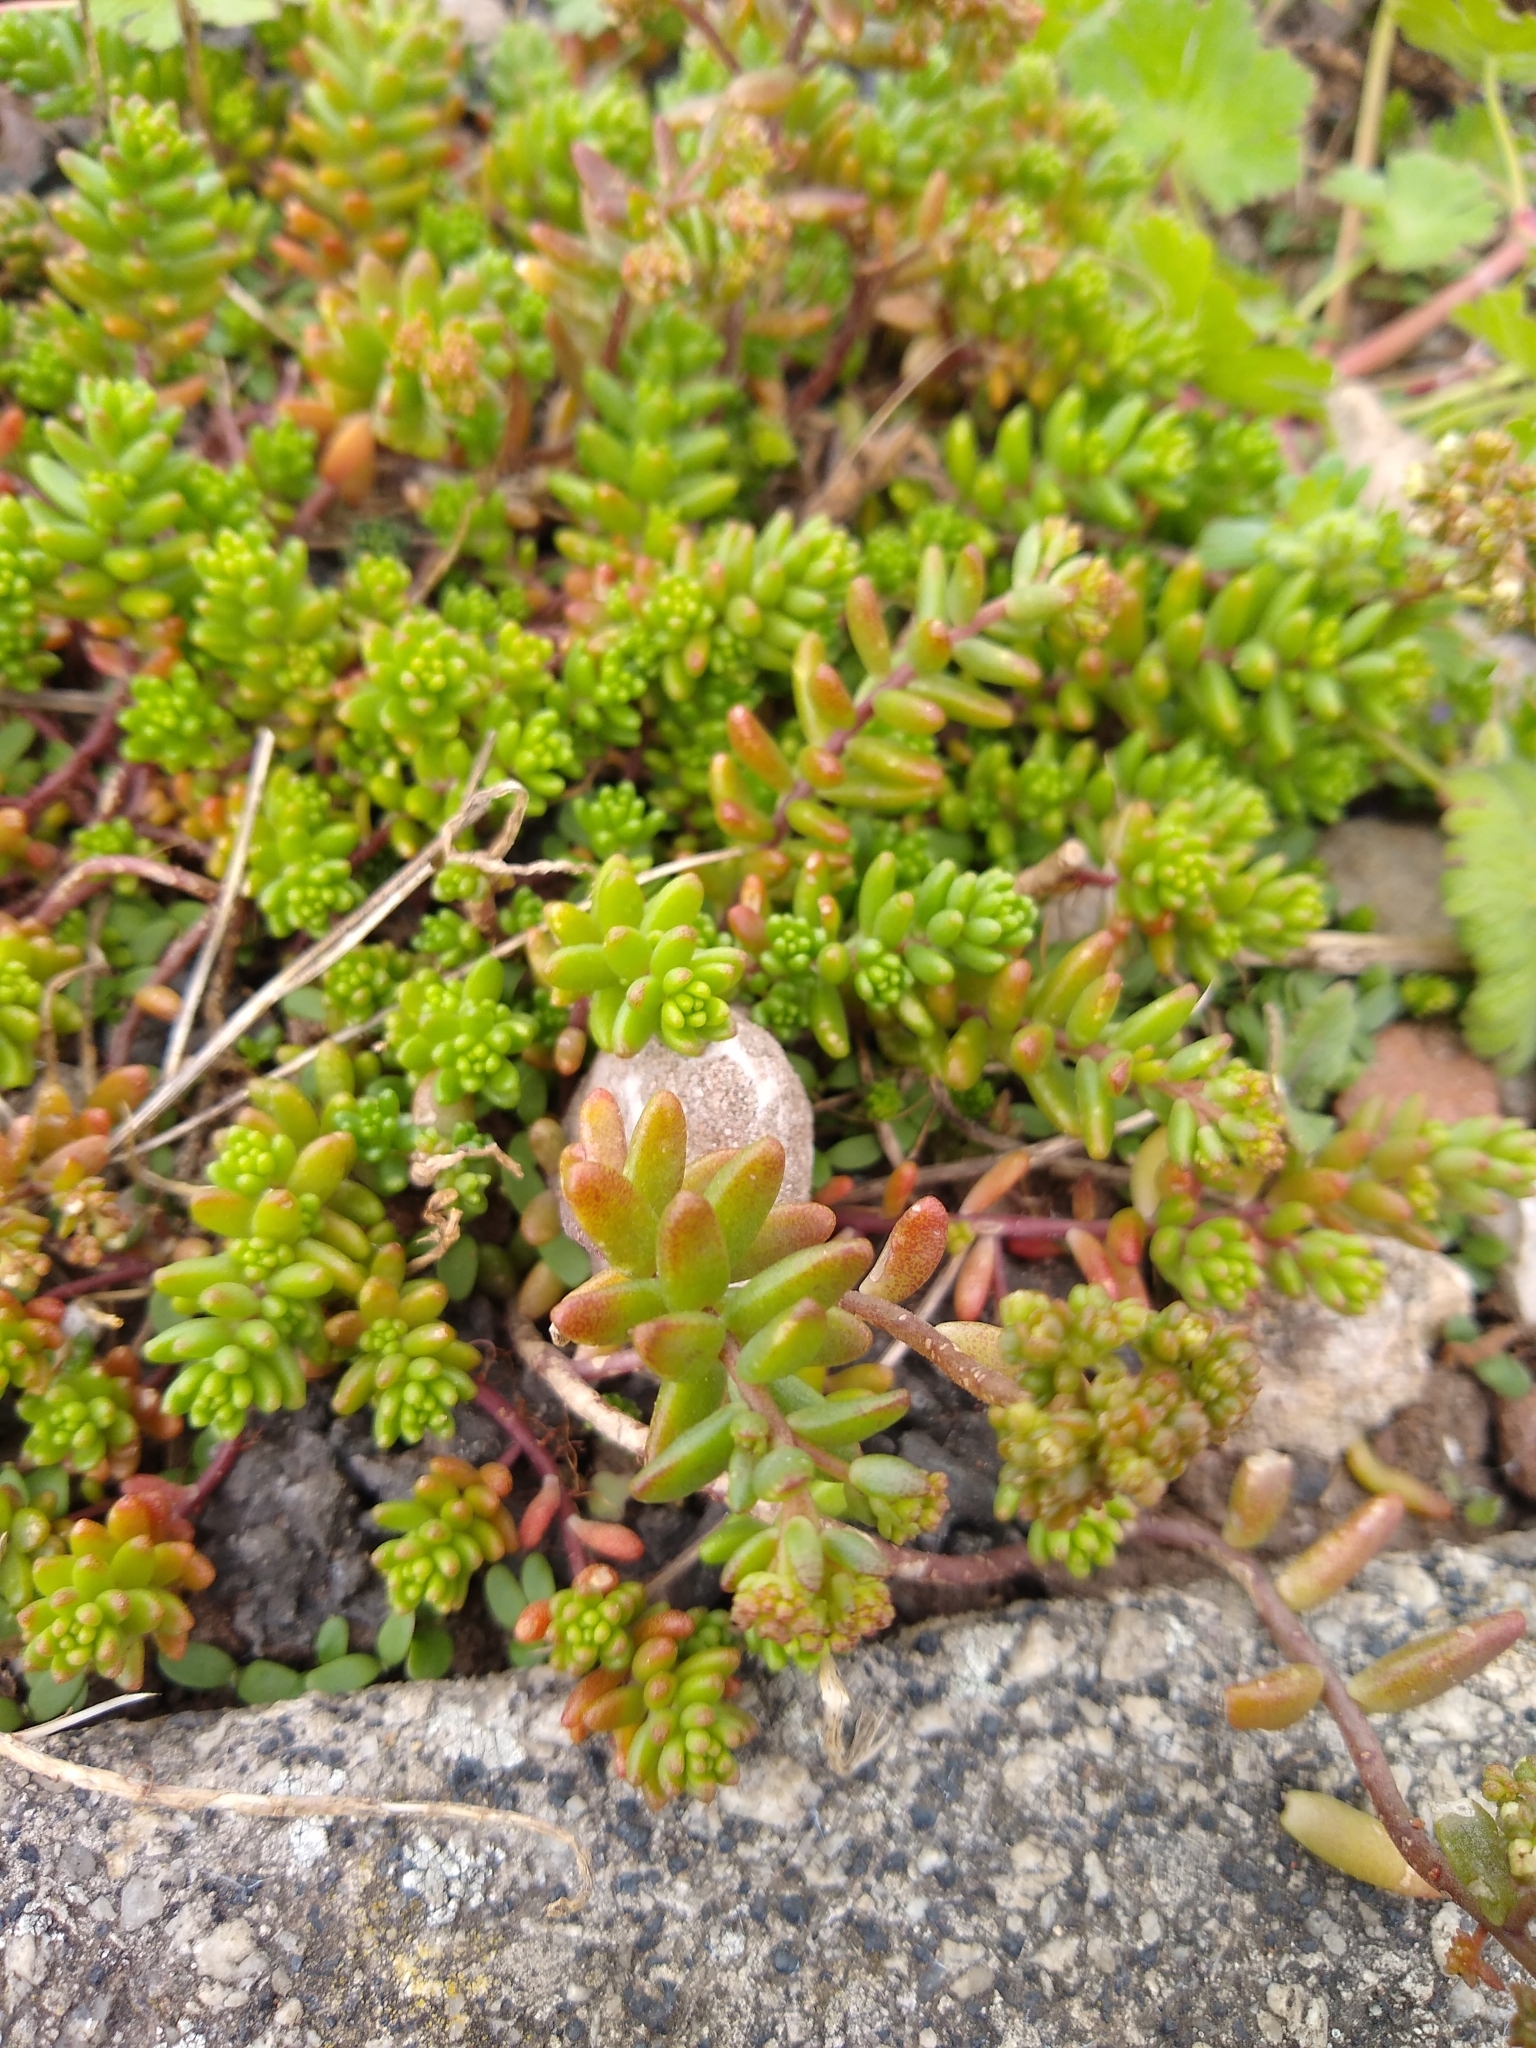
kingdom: Plantae
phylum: Tracheophyta
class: Magnoliopsida
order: Saxifragales
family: Crassulaceae
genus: Sedum
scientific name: Sedum album
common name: White stonecrop
